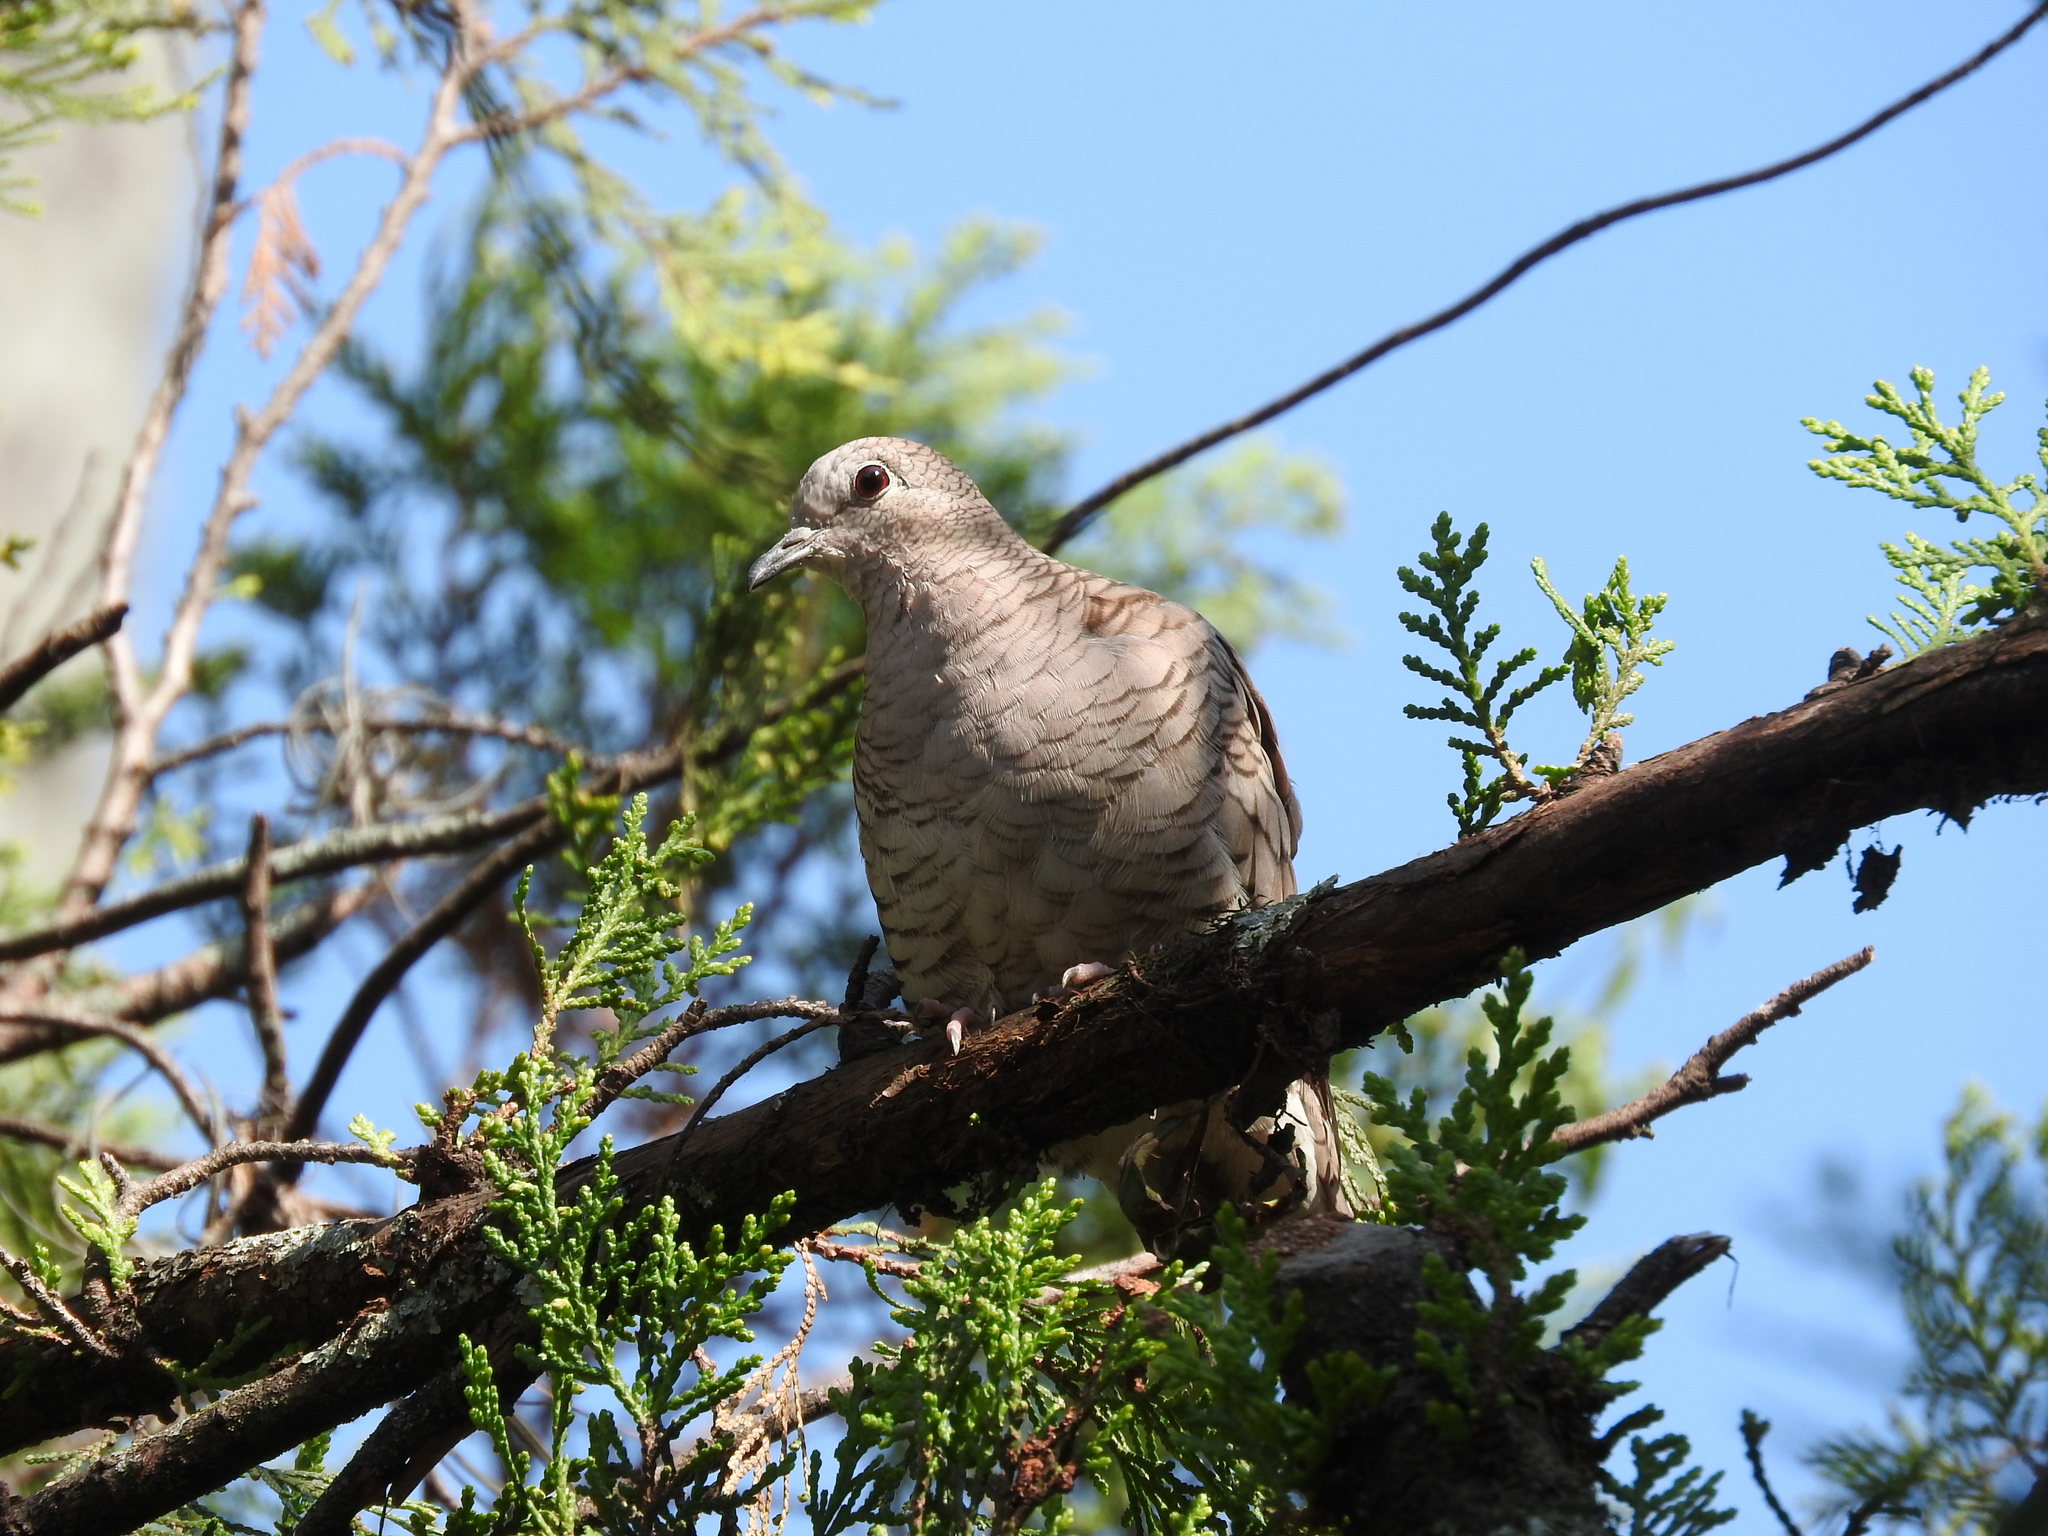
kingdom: Animalia
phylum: Chordata
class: Aves
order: Columbiformes
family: Columbidae
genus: Columbina
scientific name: Columbina inca
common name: Inca dove
